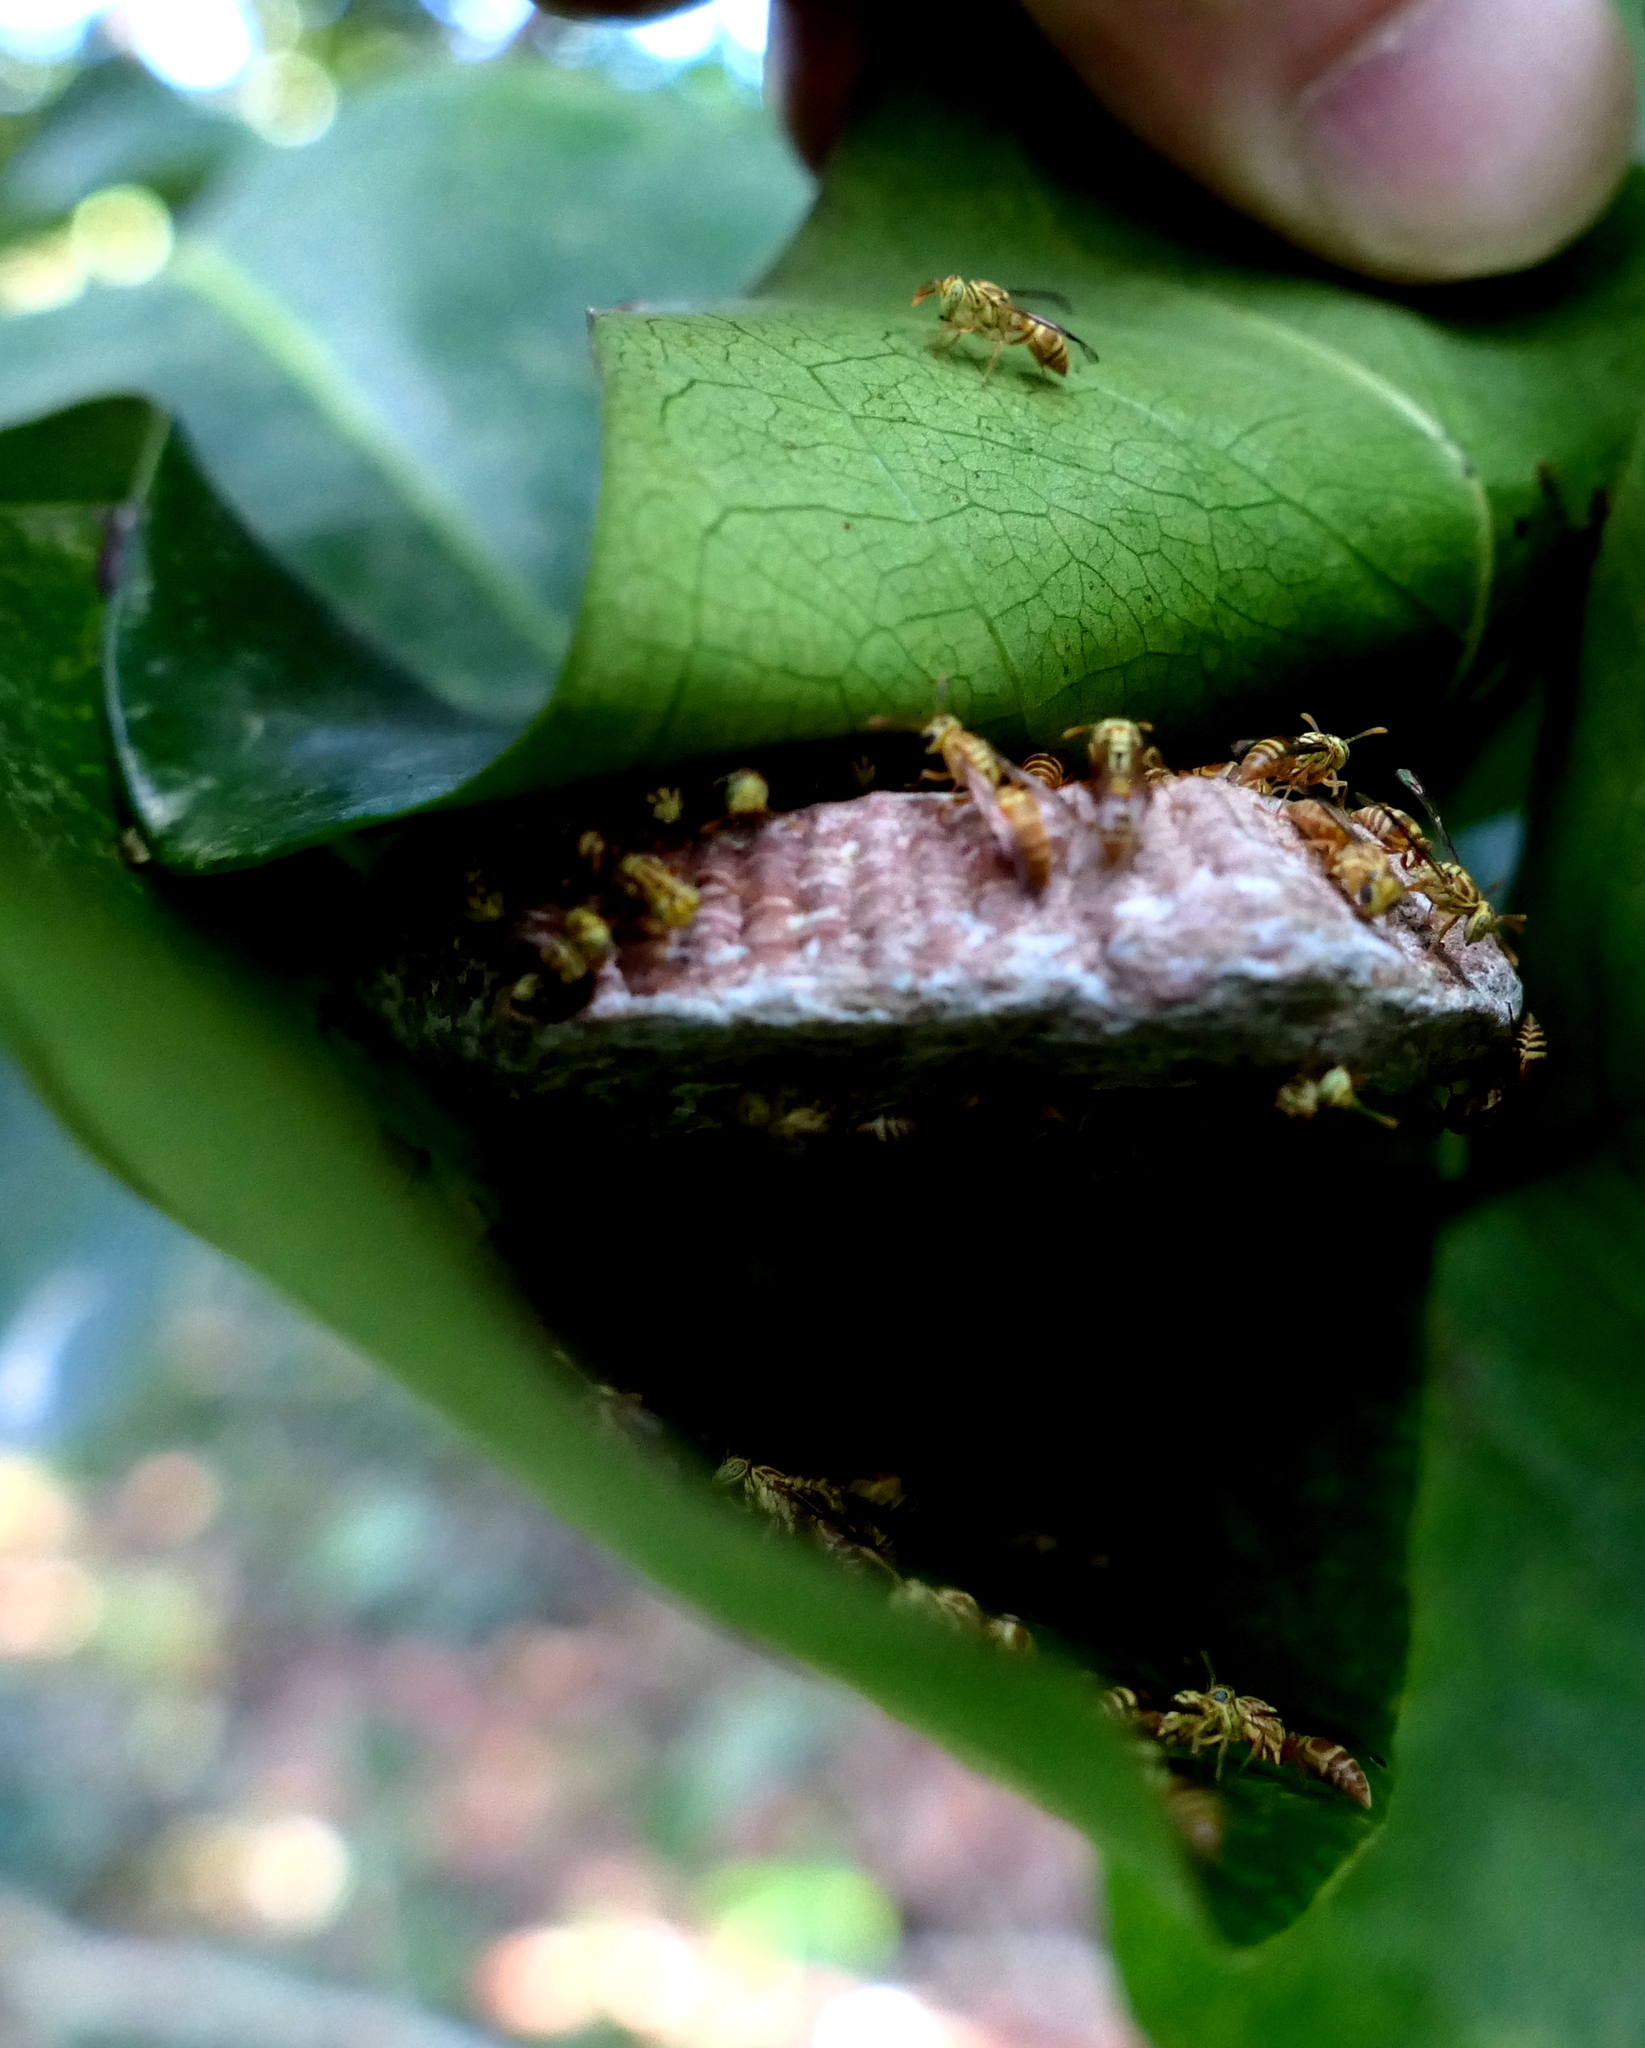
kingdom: Animalia
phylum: Arthropoda
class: Insecta
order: Hymenoptera
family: Vespidae
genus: Protopolybia
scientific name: Protopolybia potiguara
